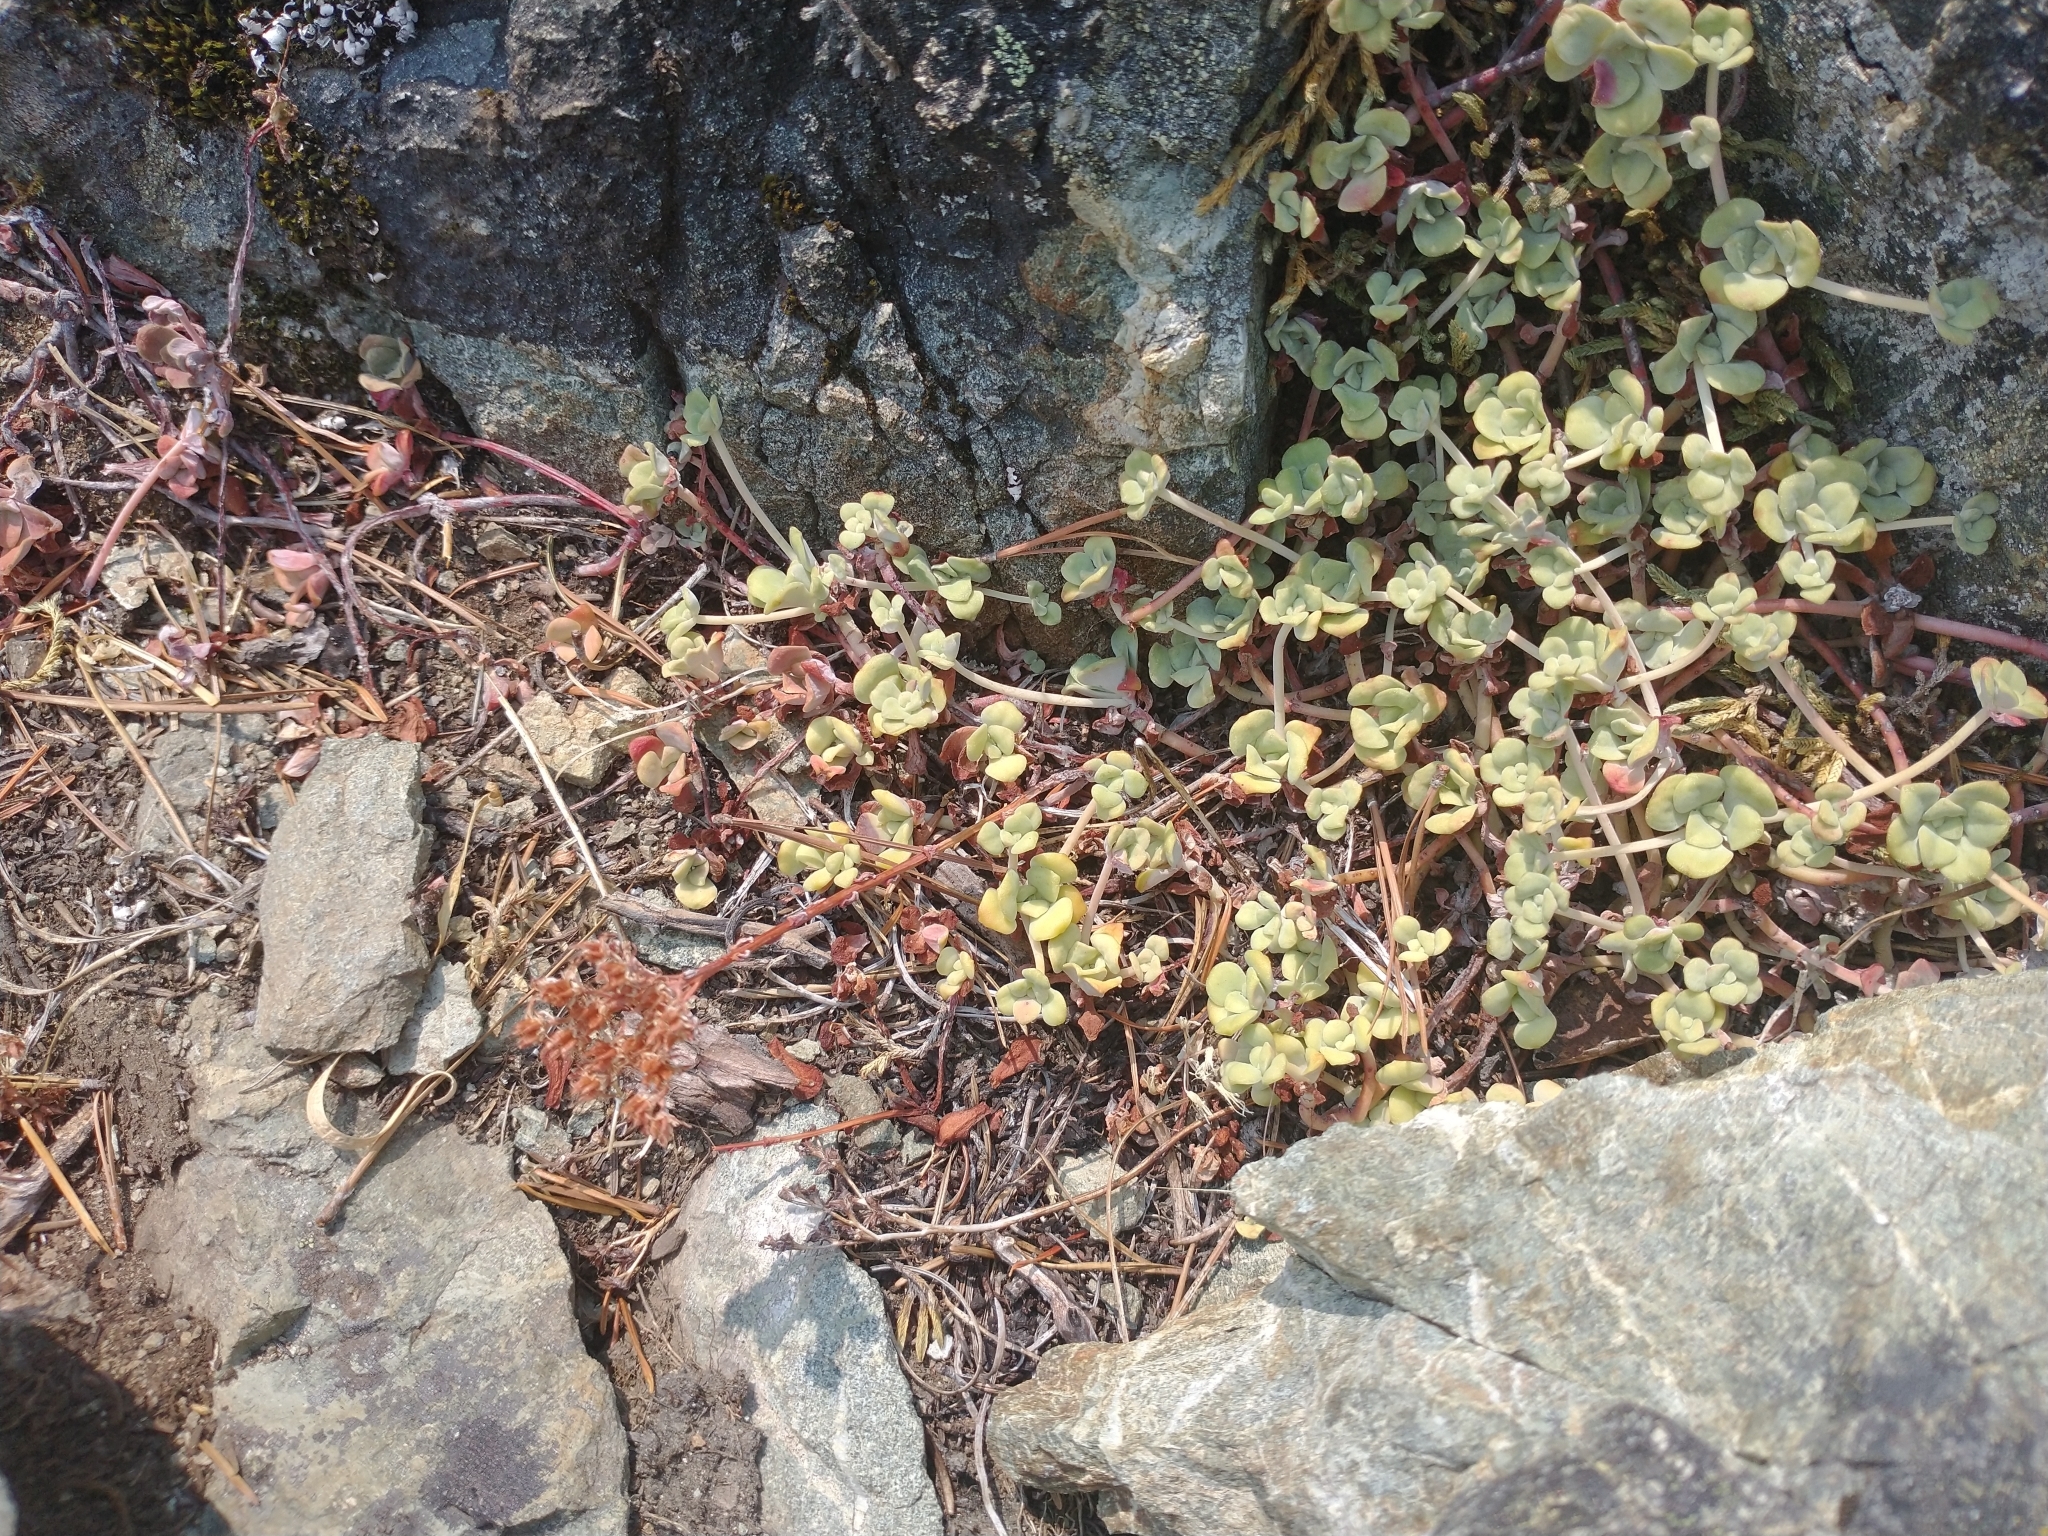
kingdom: Plantae
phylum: Tracheophyta
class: Magnoliopsida
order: Saxifragales
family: Crassulaceae
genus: Sedum
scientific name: Sedum spathulifolium
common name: Colorado stonecrop
